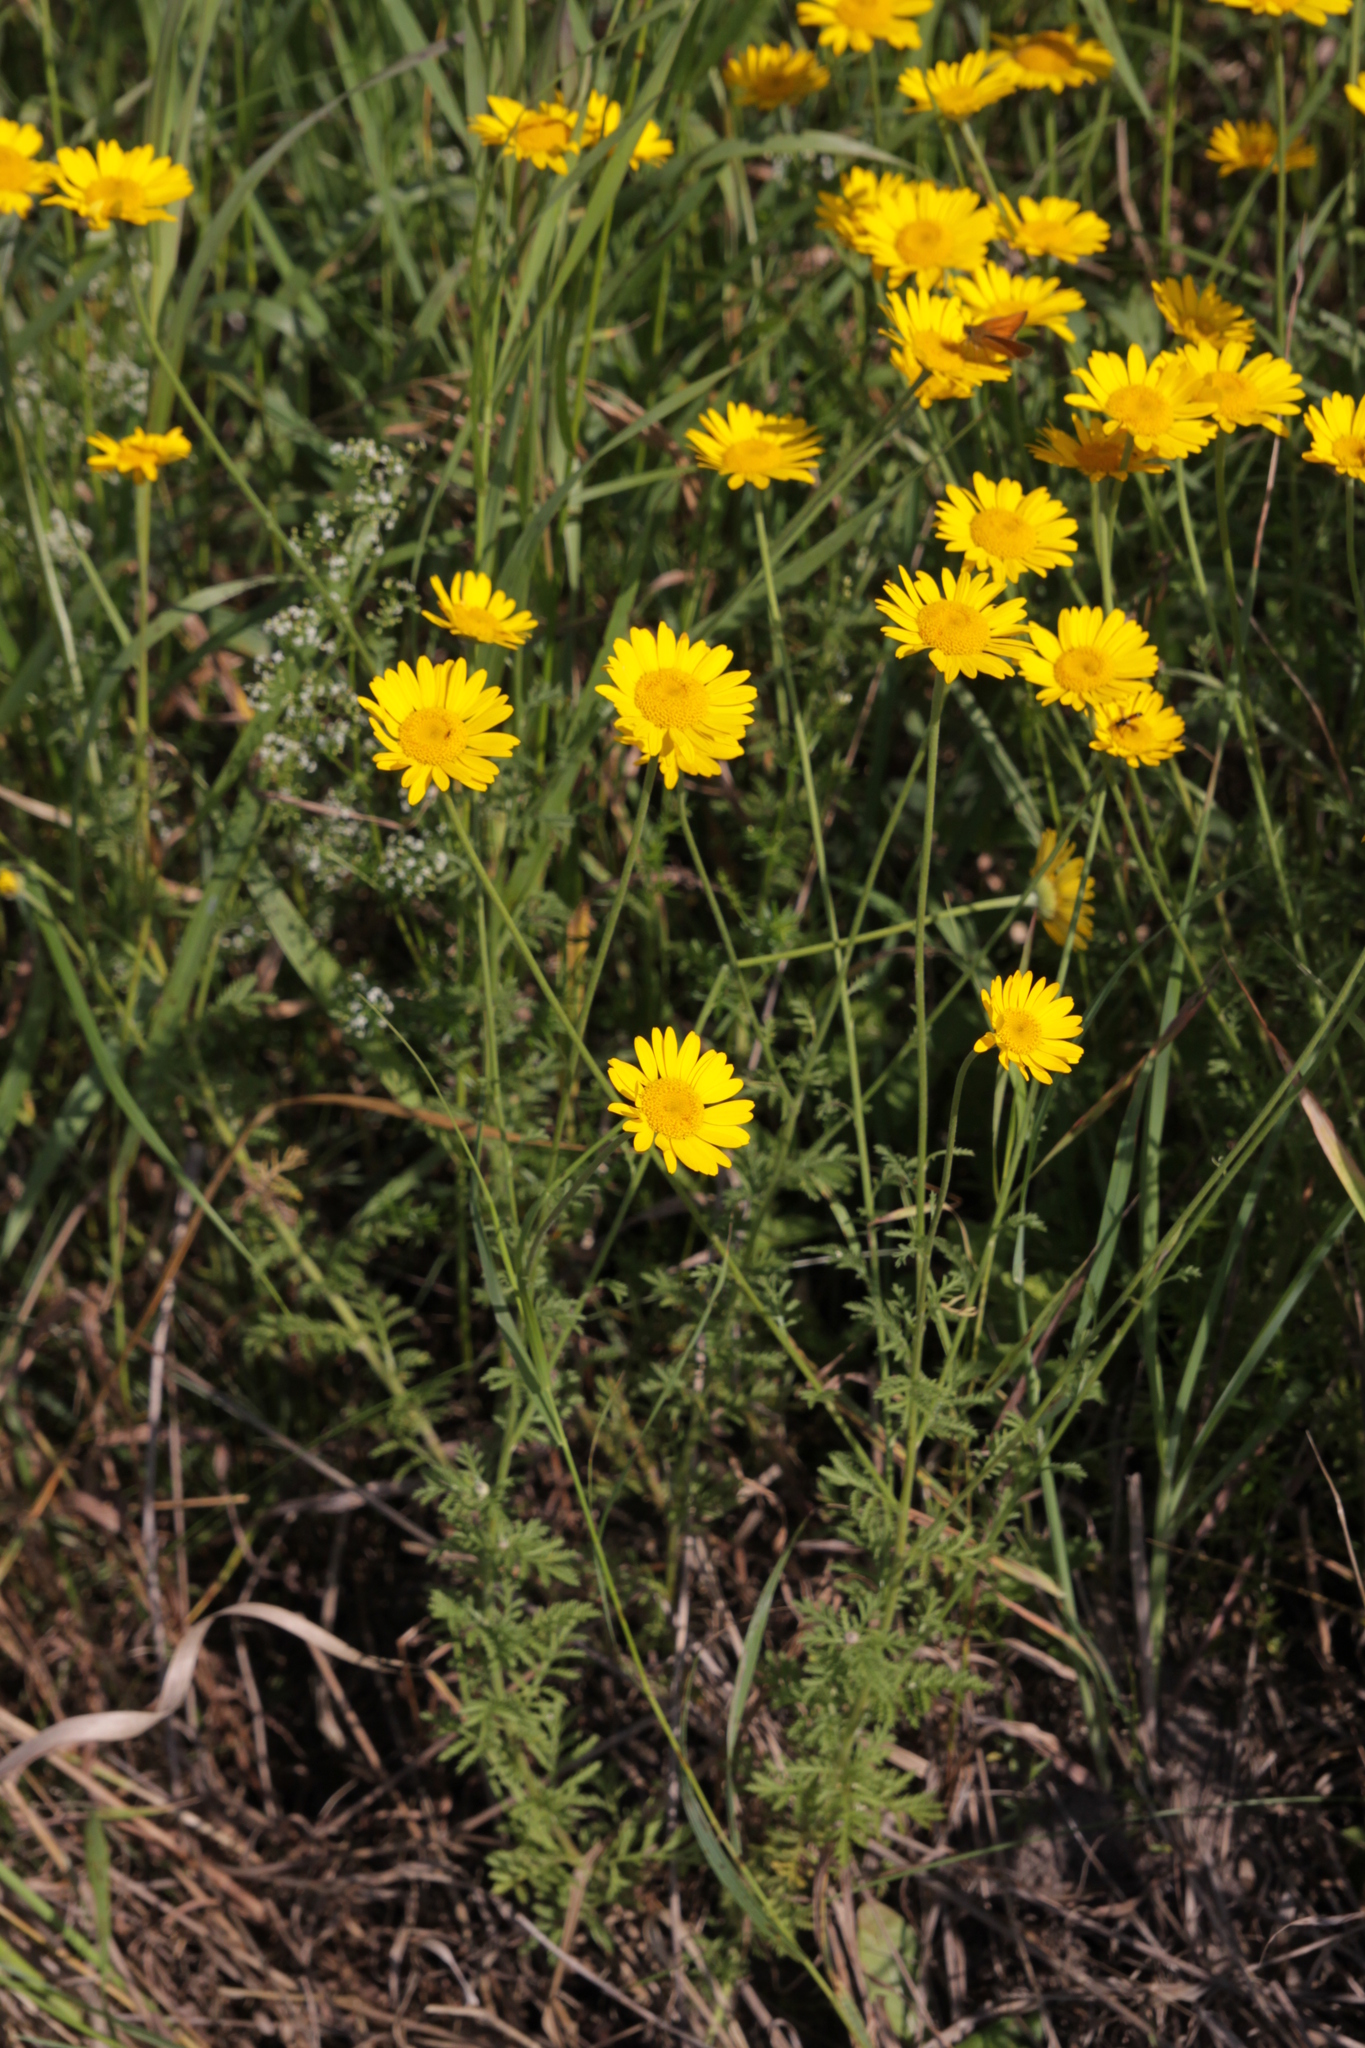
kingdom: Plantae
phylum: Tracheophyta
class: Magnoliopsida
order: Asterales
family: Asteraceae
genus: Cota
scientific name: Cota tinctoria
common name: Golden chamomile
